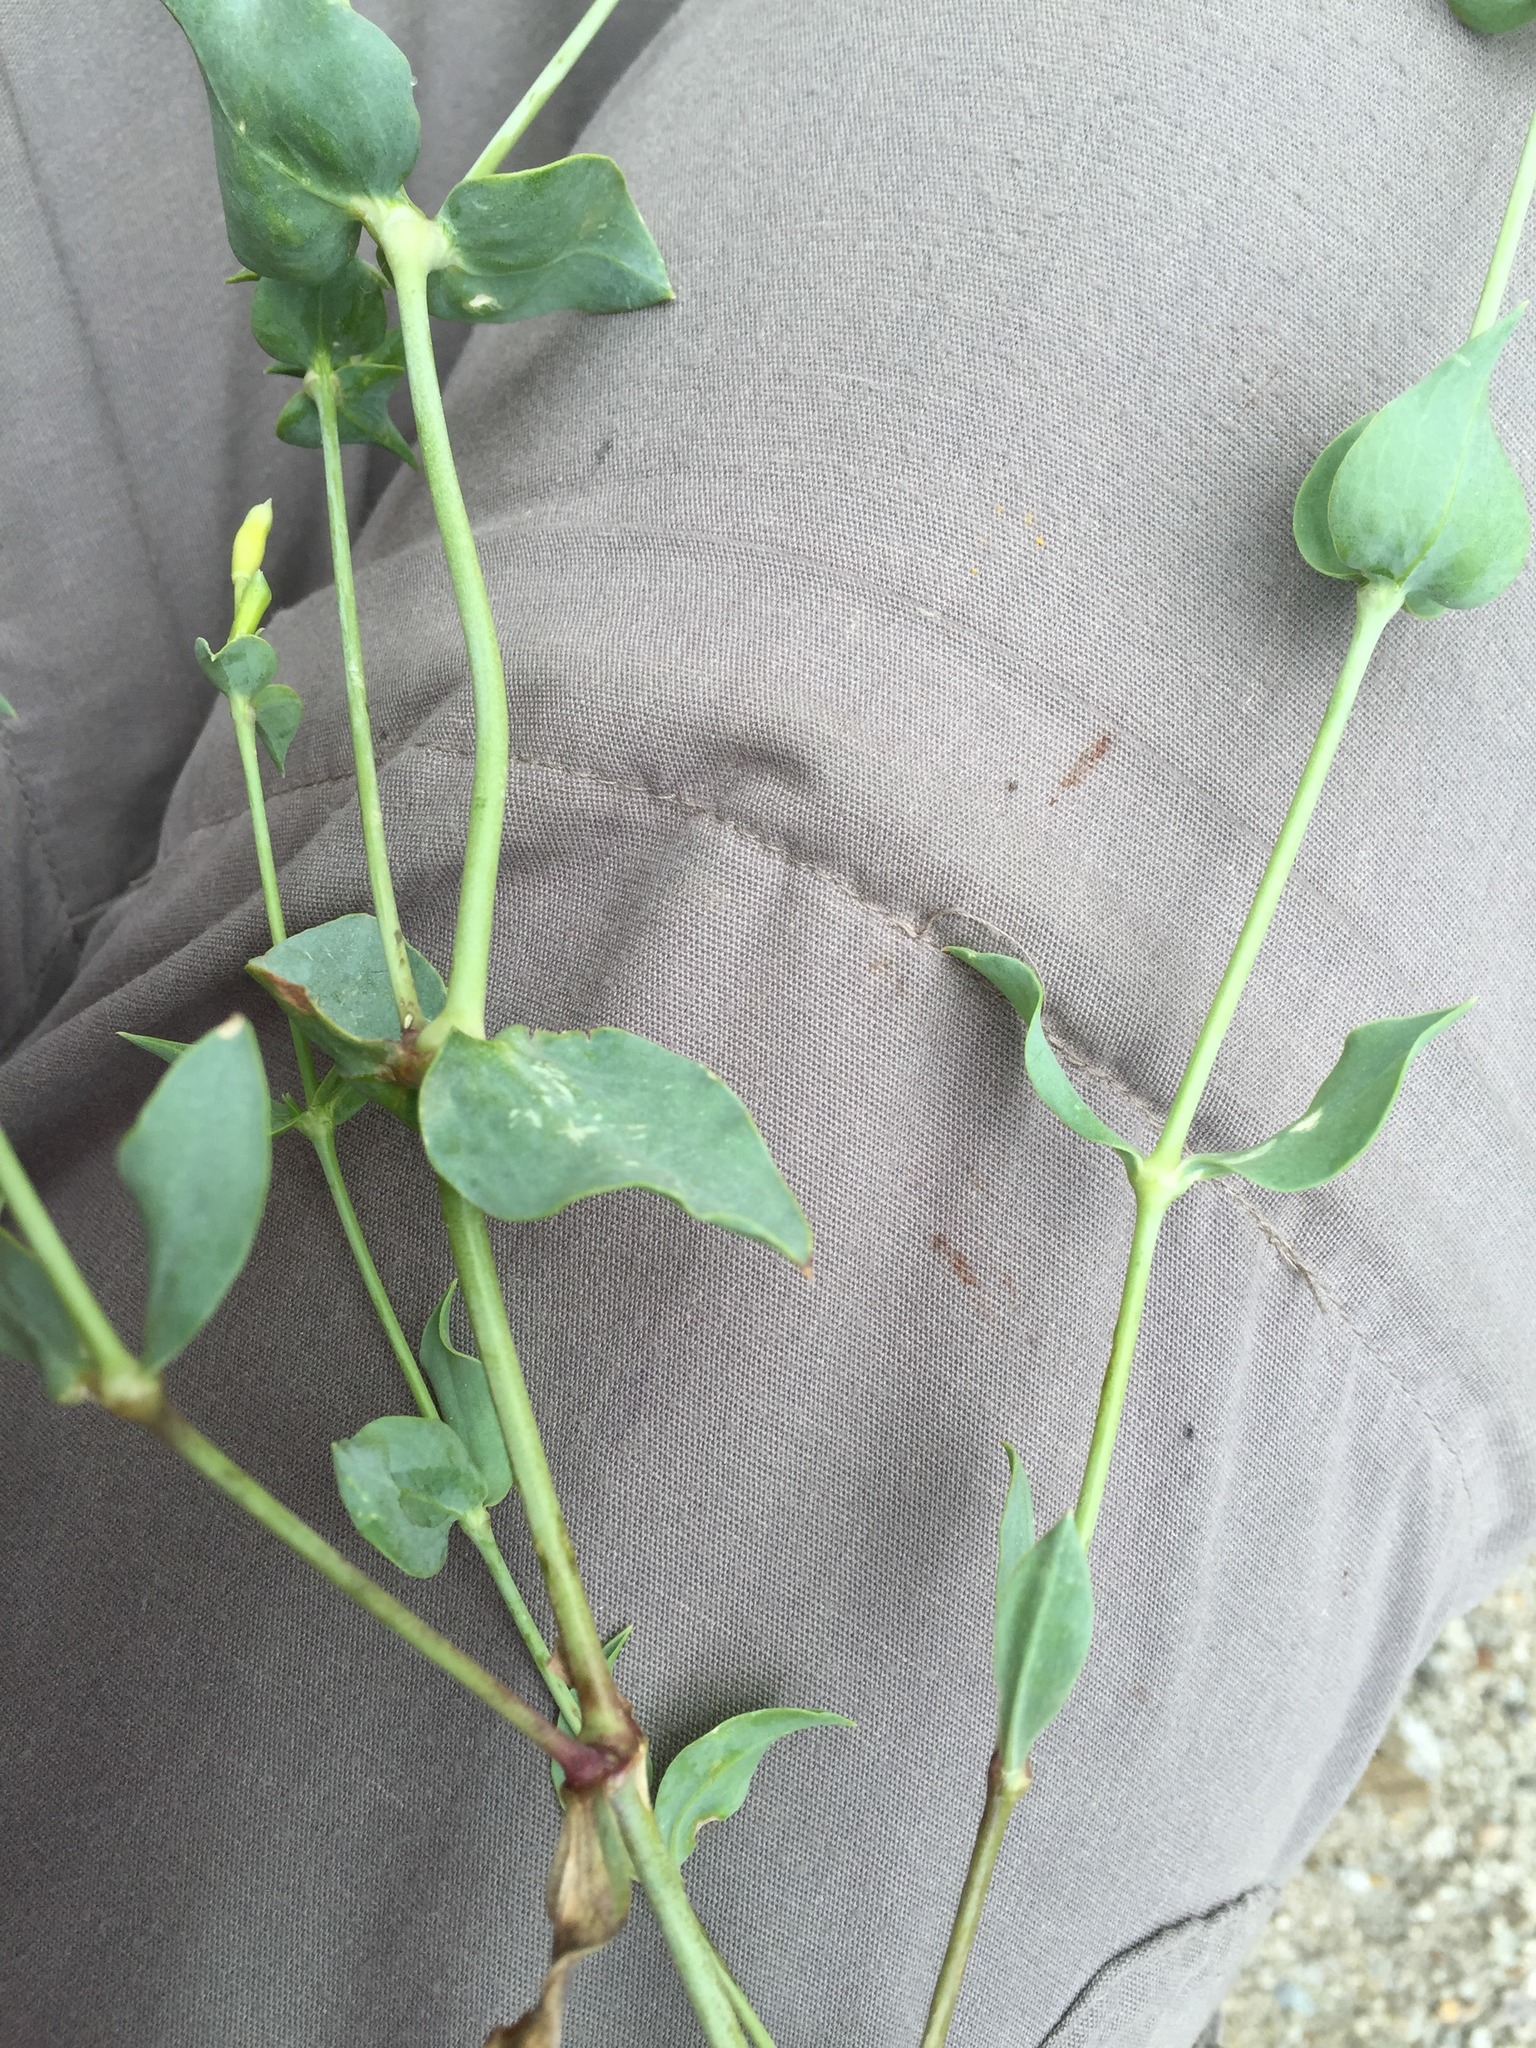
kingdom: Plantae
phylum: Tracheophyta
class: Magnoliopsida
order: Gentianales
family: Gentianaceae
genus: Blackstonia
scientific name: Blackstonia perfoliata
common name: Yellow-wort
